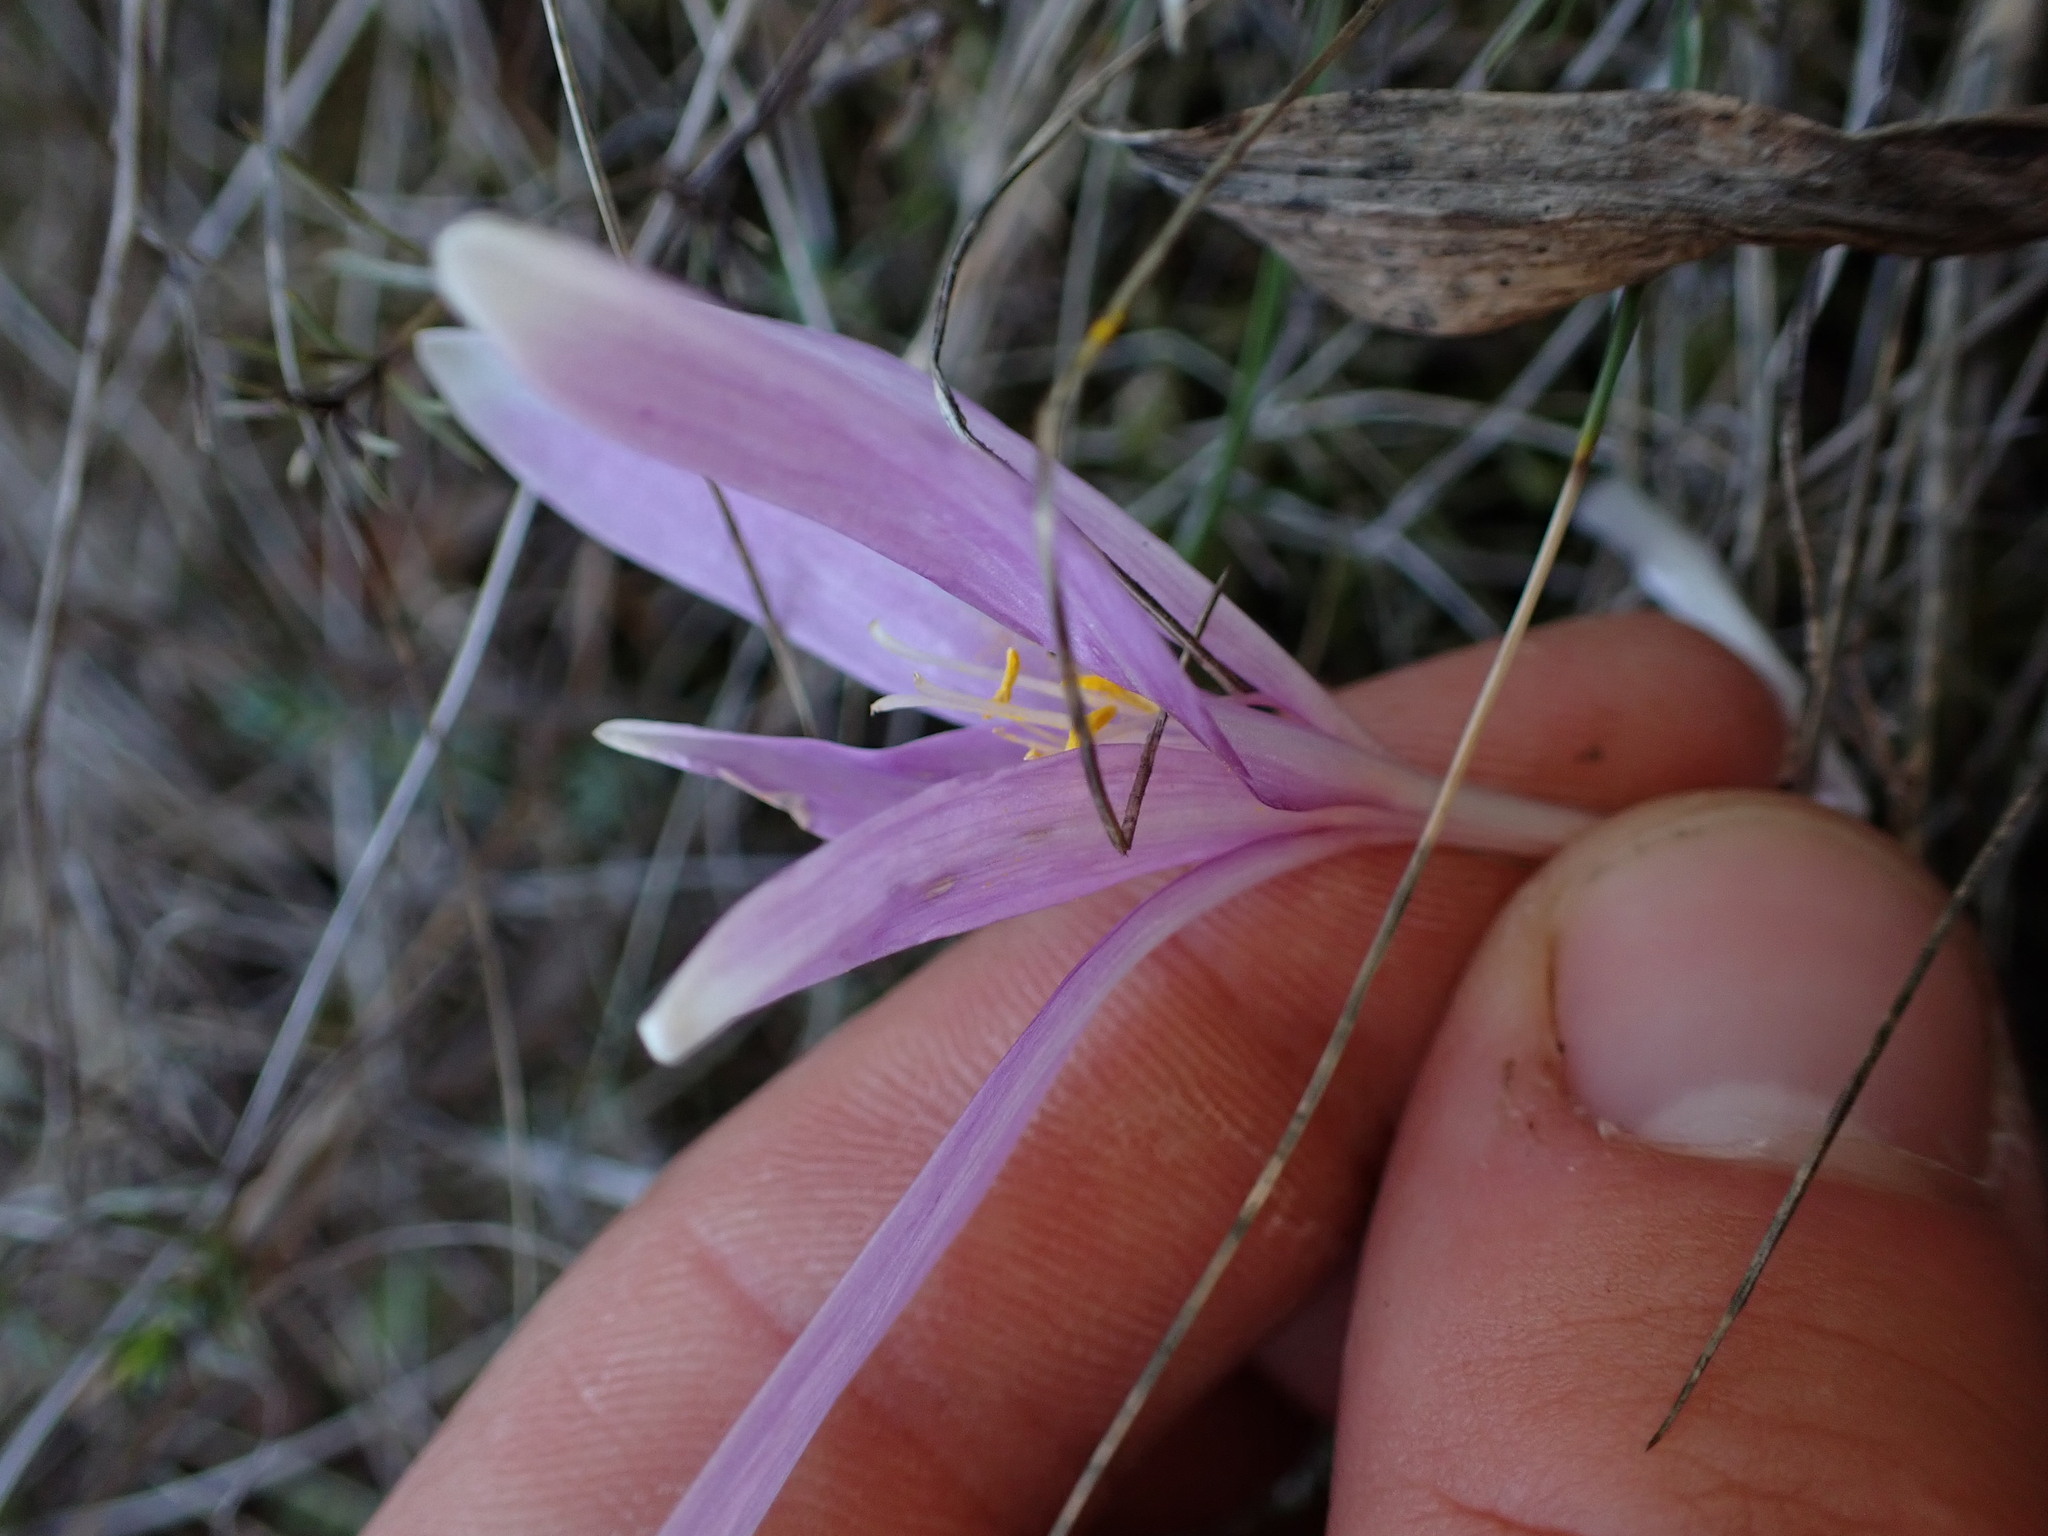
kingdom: Plantae
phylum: Tracheophyta
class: Liliopsida
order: Liliales
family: Colchicaceae
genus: Colchicum
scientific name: Colchicum longifolium
